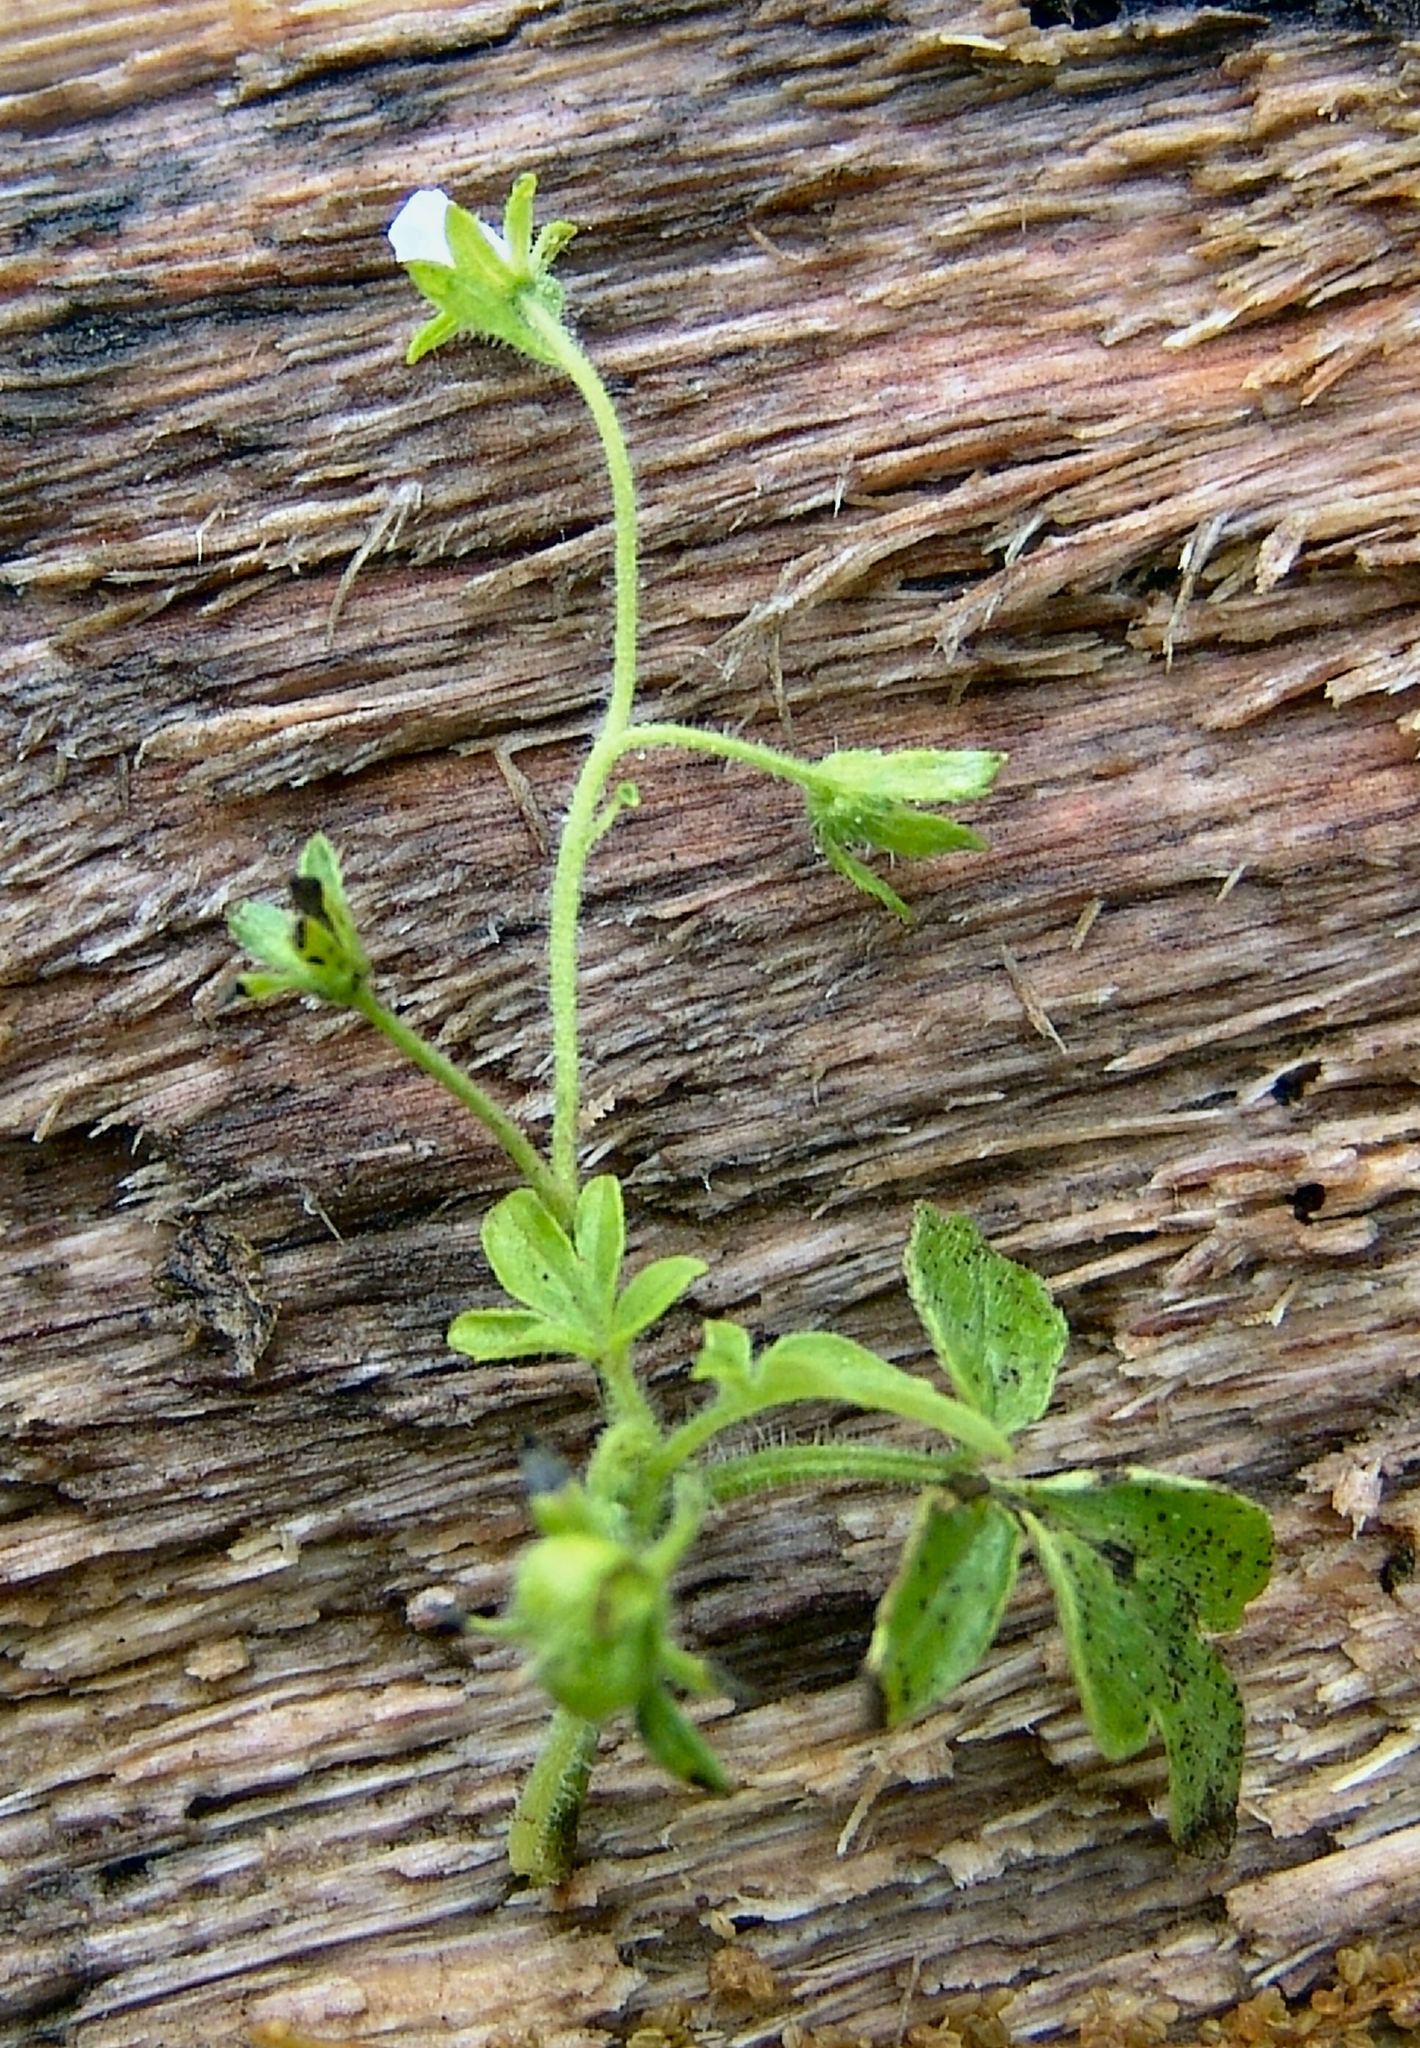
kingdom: Plantae
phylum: Tracheophyta
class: Magnoliopsida
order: Boraginales
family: Hydrophyllaceae
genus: Phacelia
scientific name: Phacelia ranunculacea
